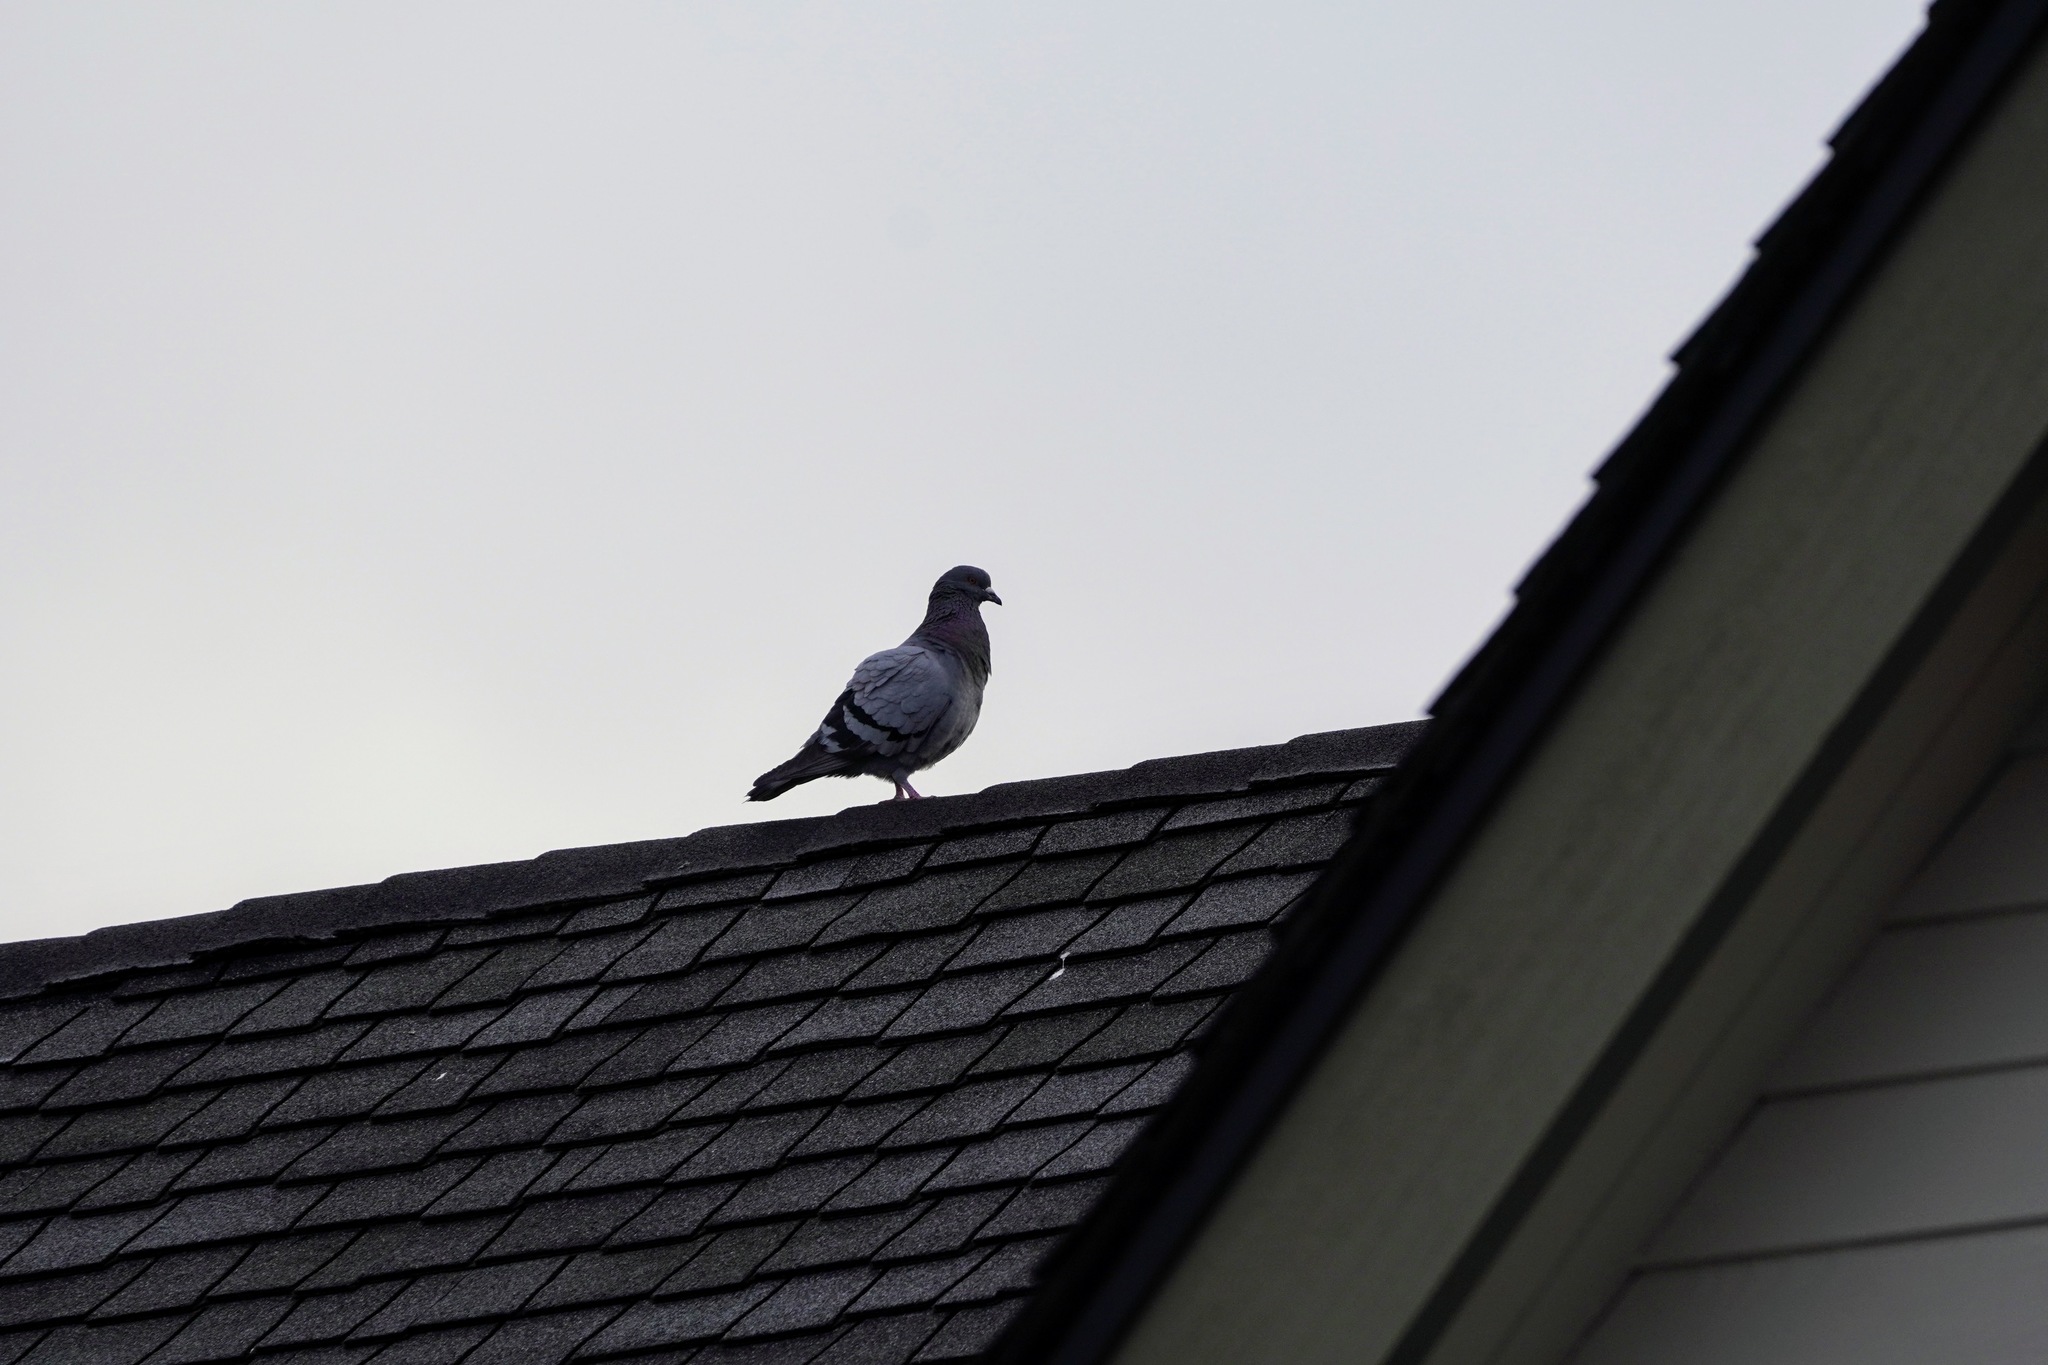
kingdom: Animalia
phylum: Chordata
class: Aves
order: Columbiformes
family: Columbidae
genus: Columba
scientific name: Columba livia
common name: Rock pigeon
